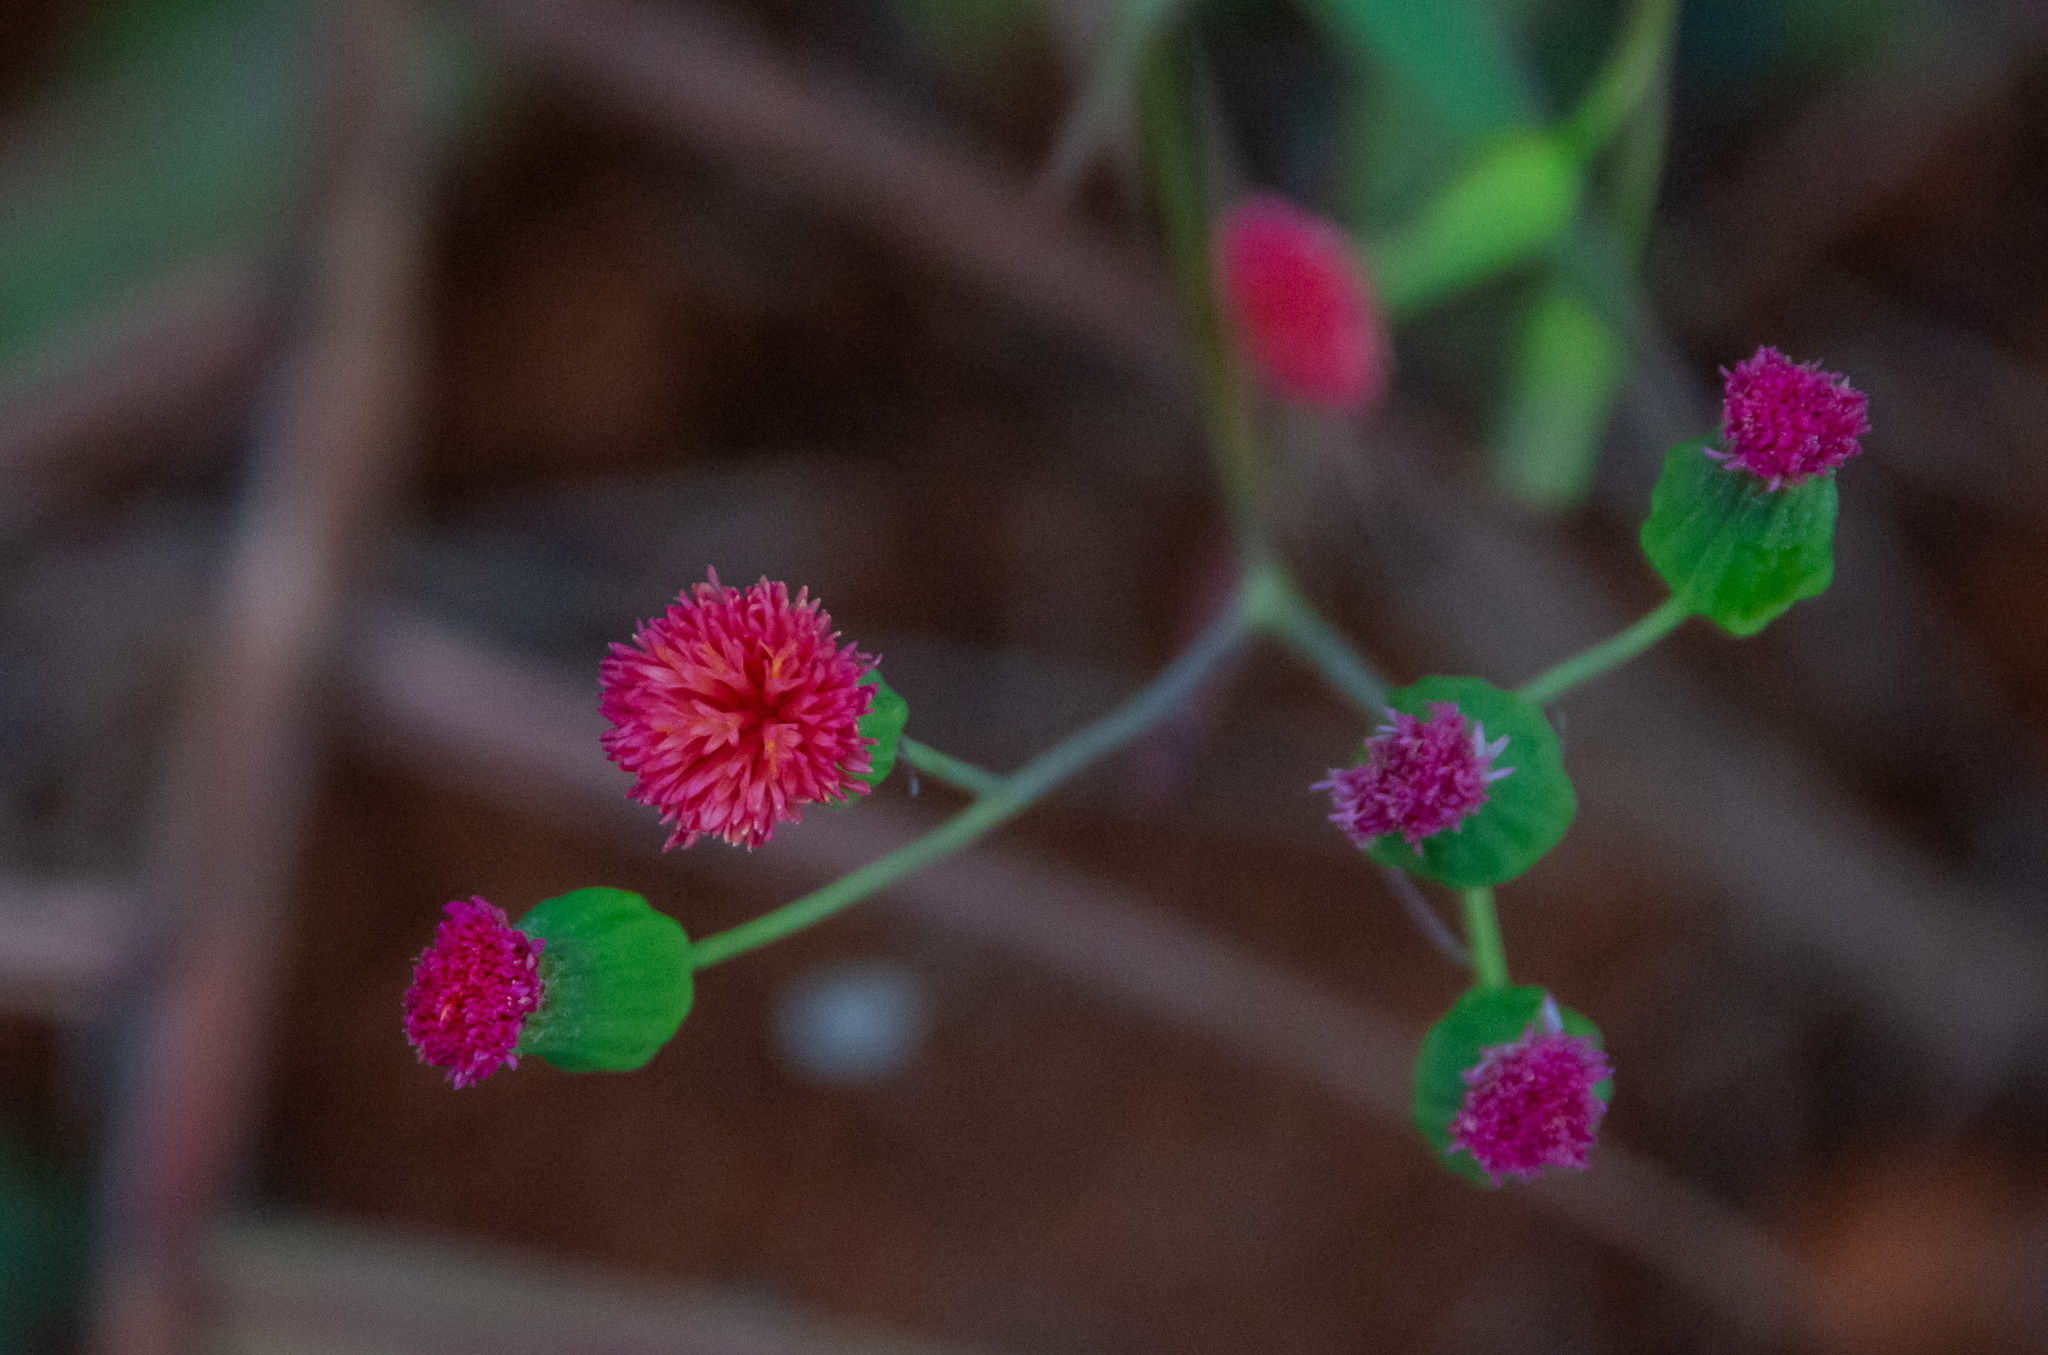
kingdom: Plantae
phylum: Tracheophyta
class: Magnoliopsida
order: Asterales
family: Asteraceae
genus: Emilia
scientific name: Emilia fosbergii
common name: Florida tasselflower
